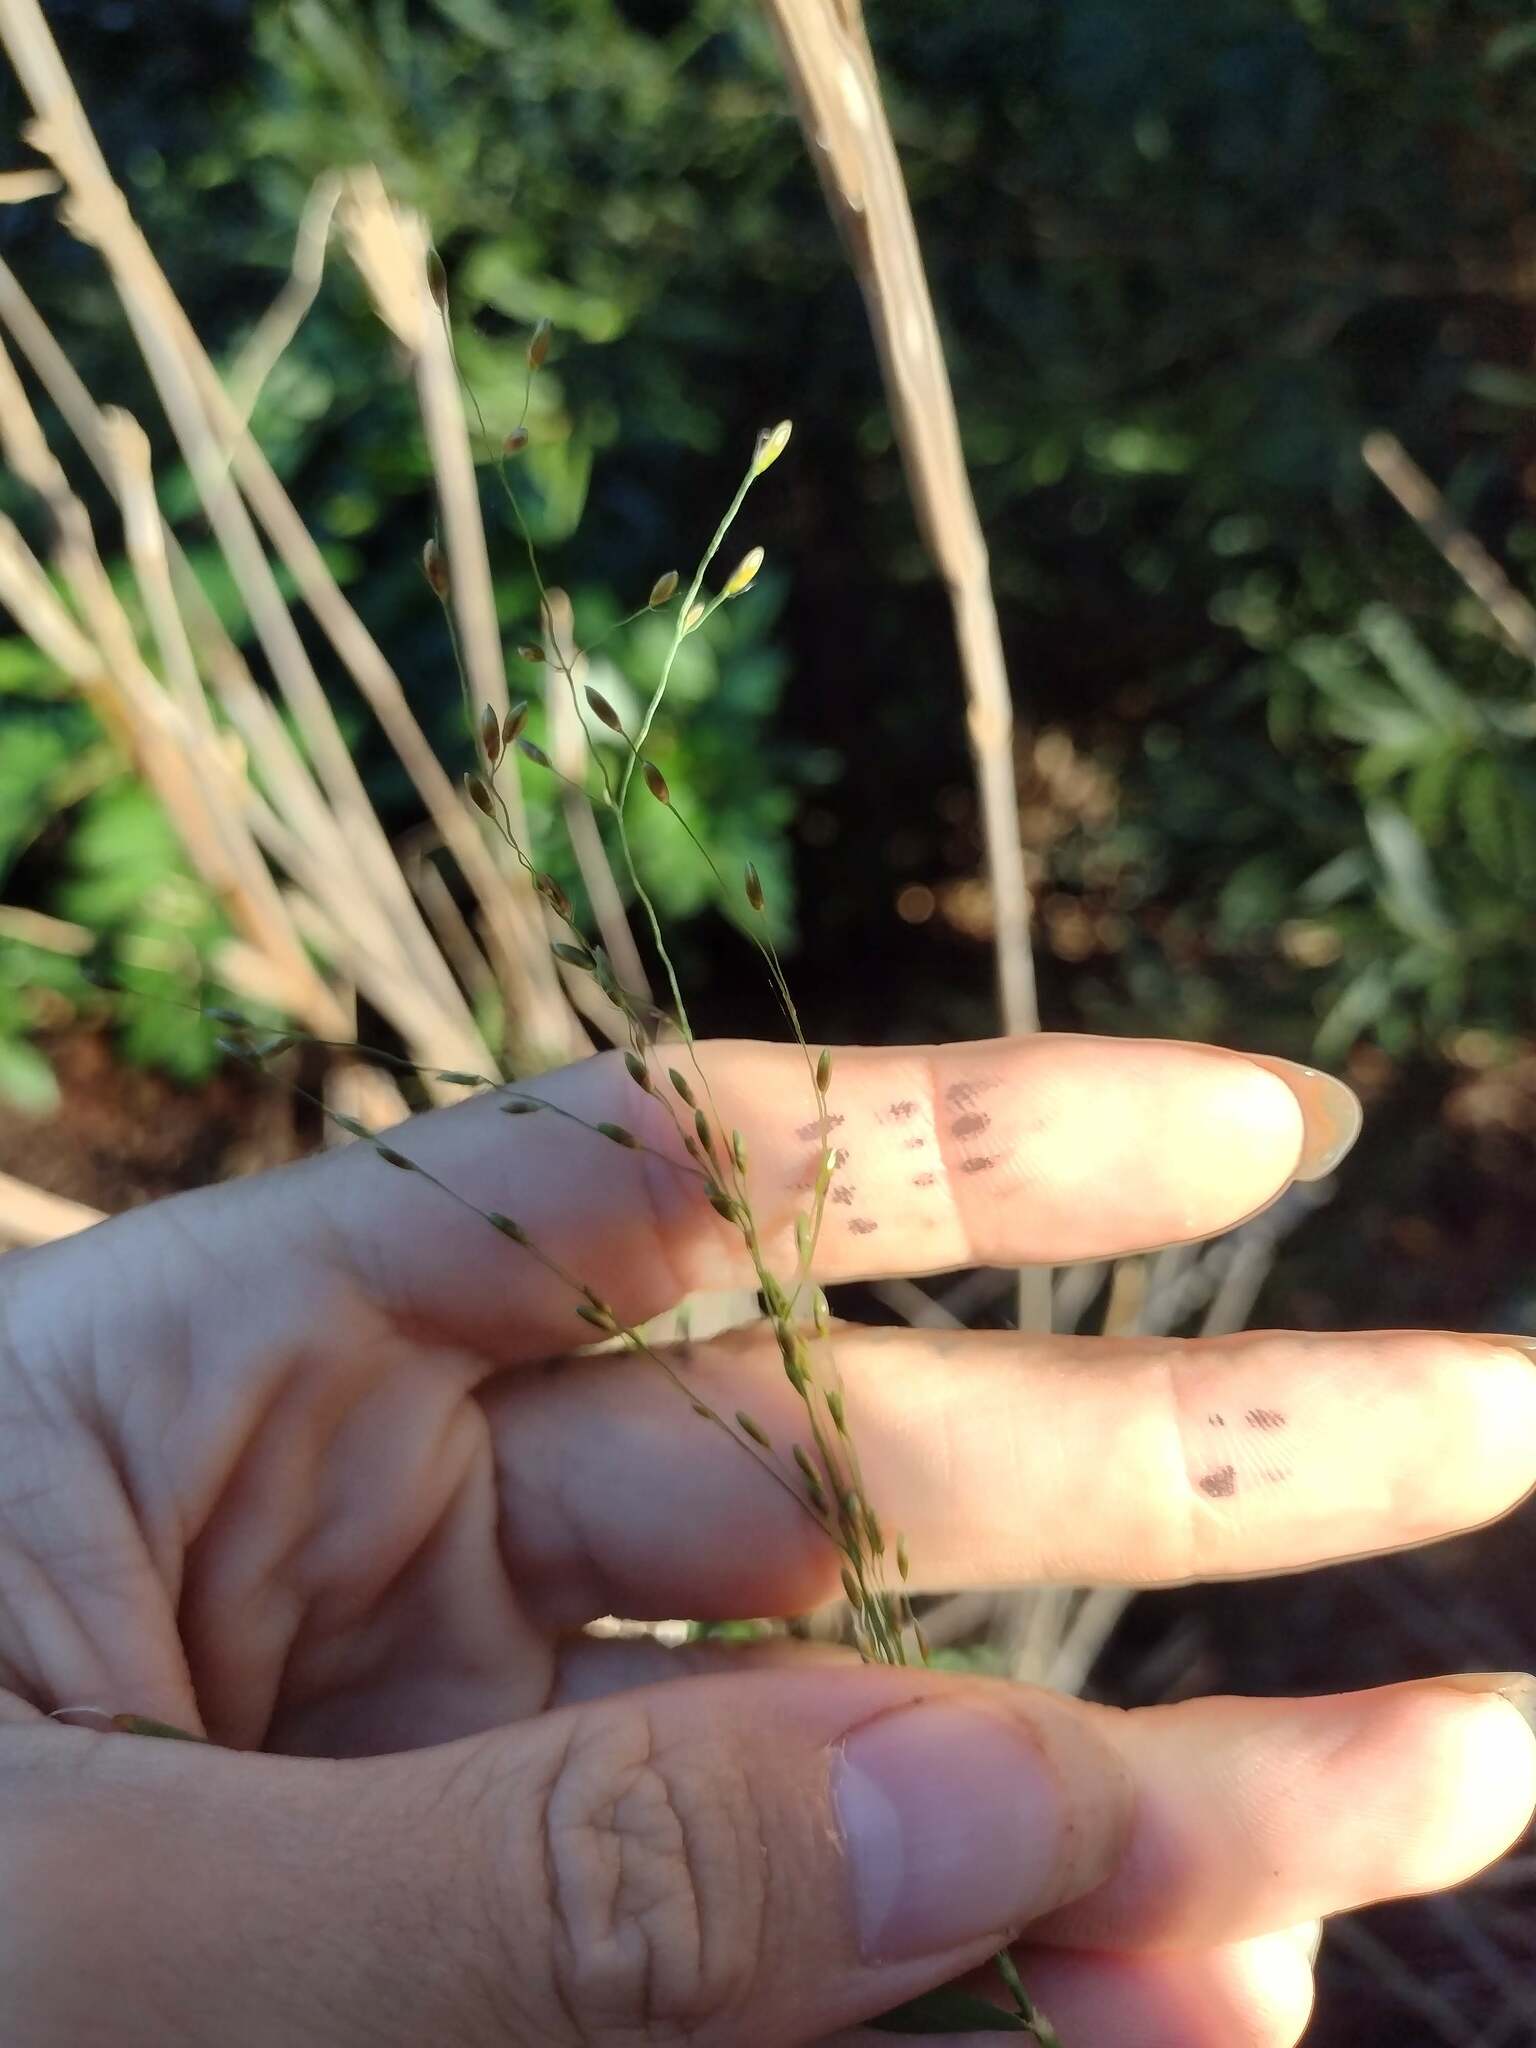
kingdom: Plantae
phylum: Tracheophyta
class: Liliopsida
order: Poales
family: Poaceae
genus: Megathyrsus
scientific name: Megathyrsus maximus
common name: Guineagrass
